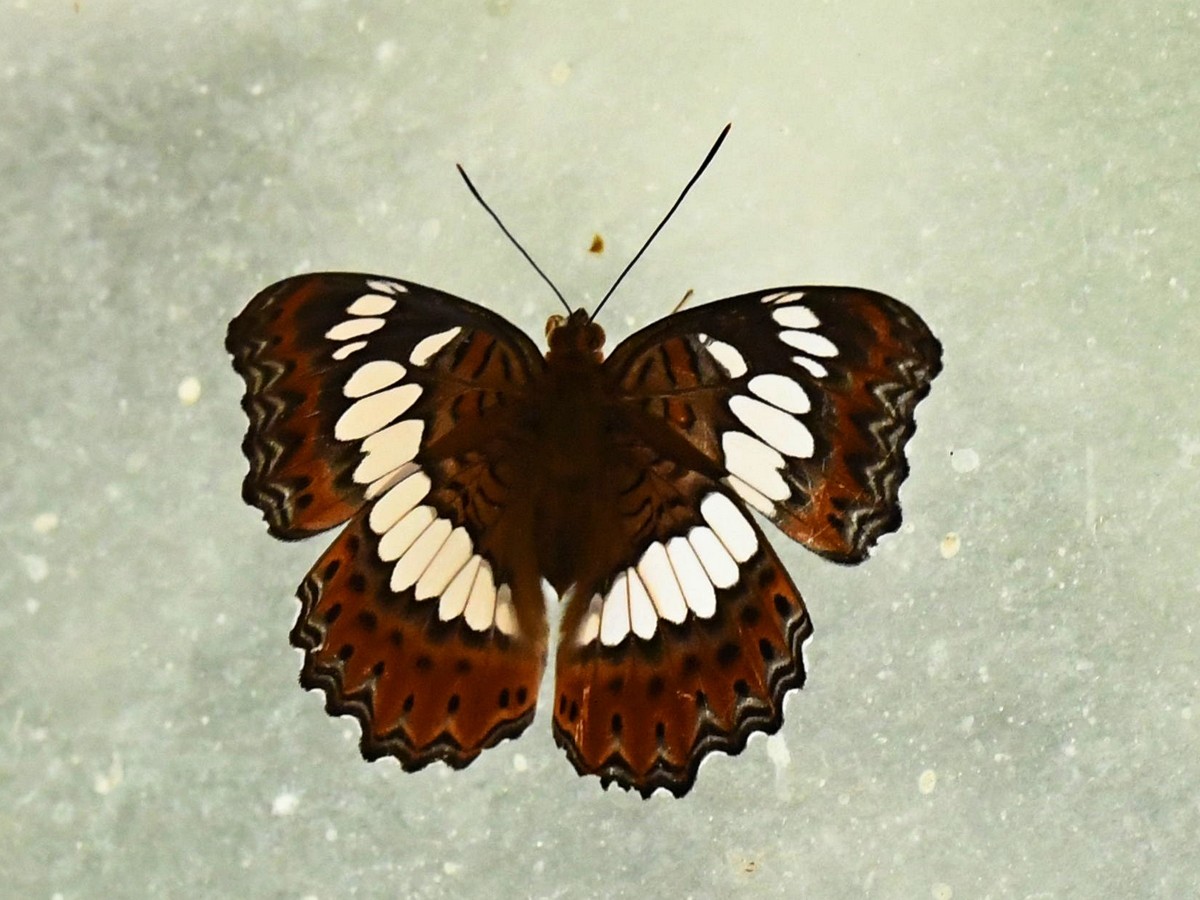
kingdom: Animalia
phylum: Arthropoda
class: Insecta
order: Lepidoptera
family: Nymphalidae
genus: Limenitis
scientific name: Limenitis Moduza procris
